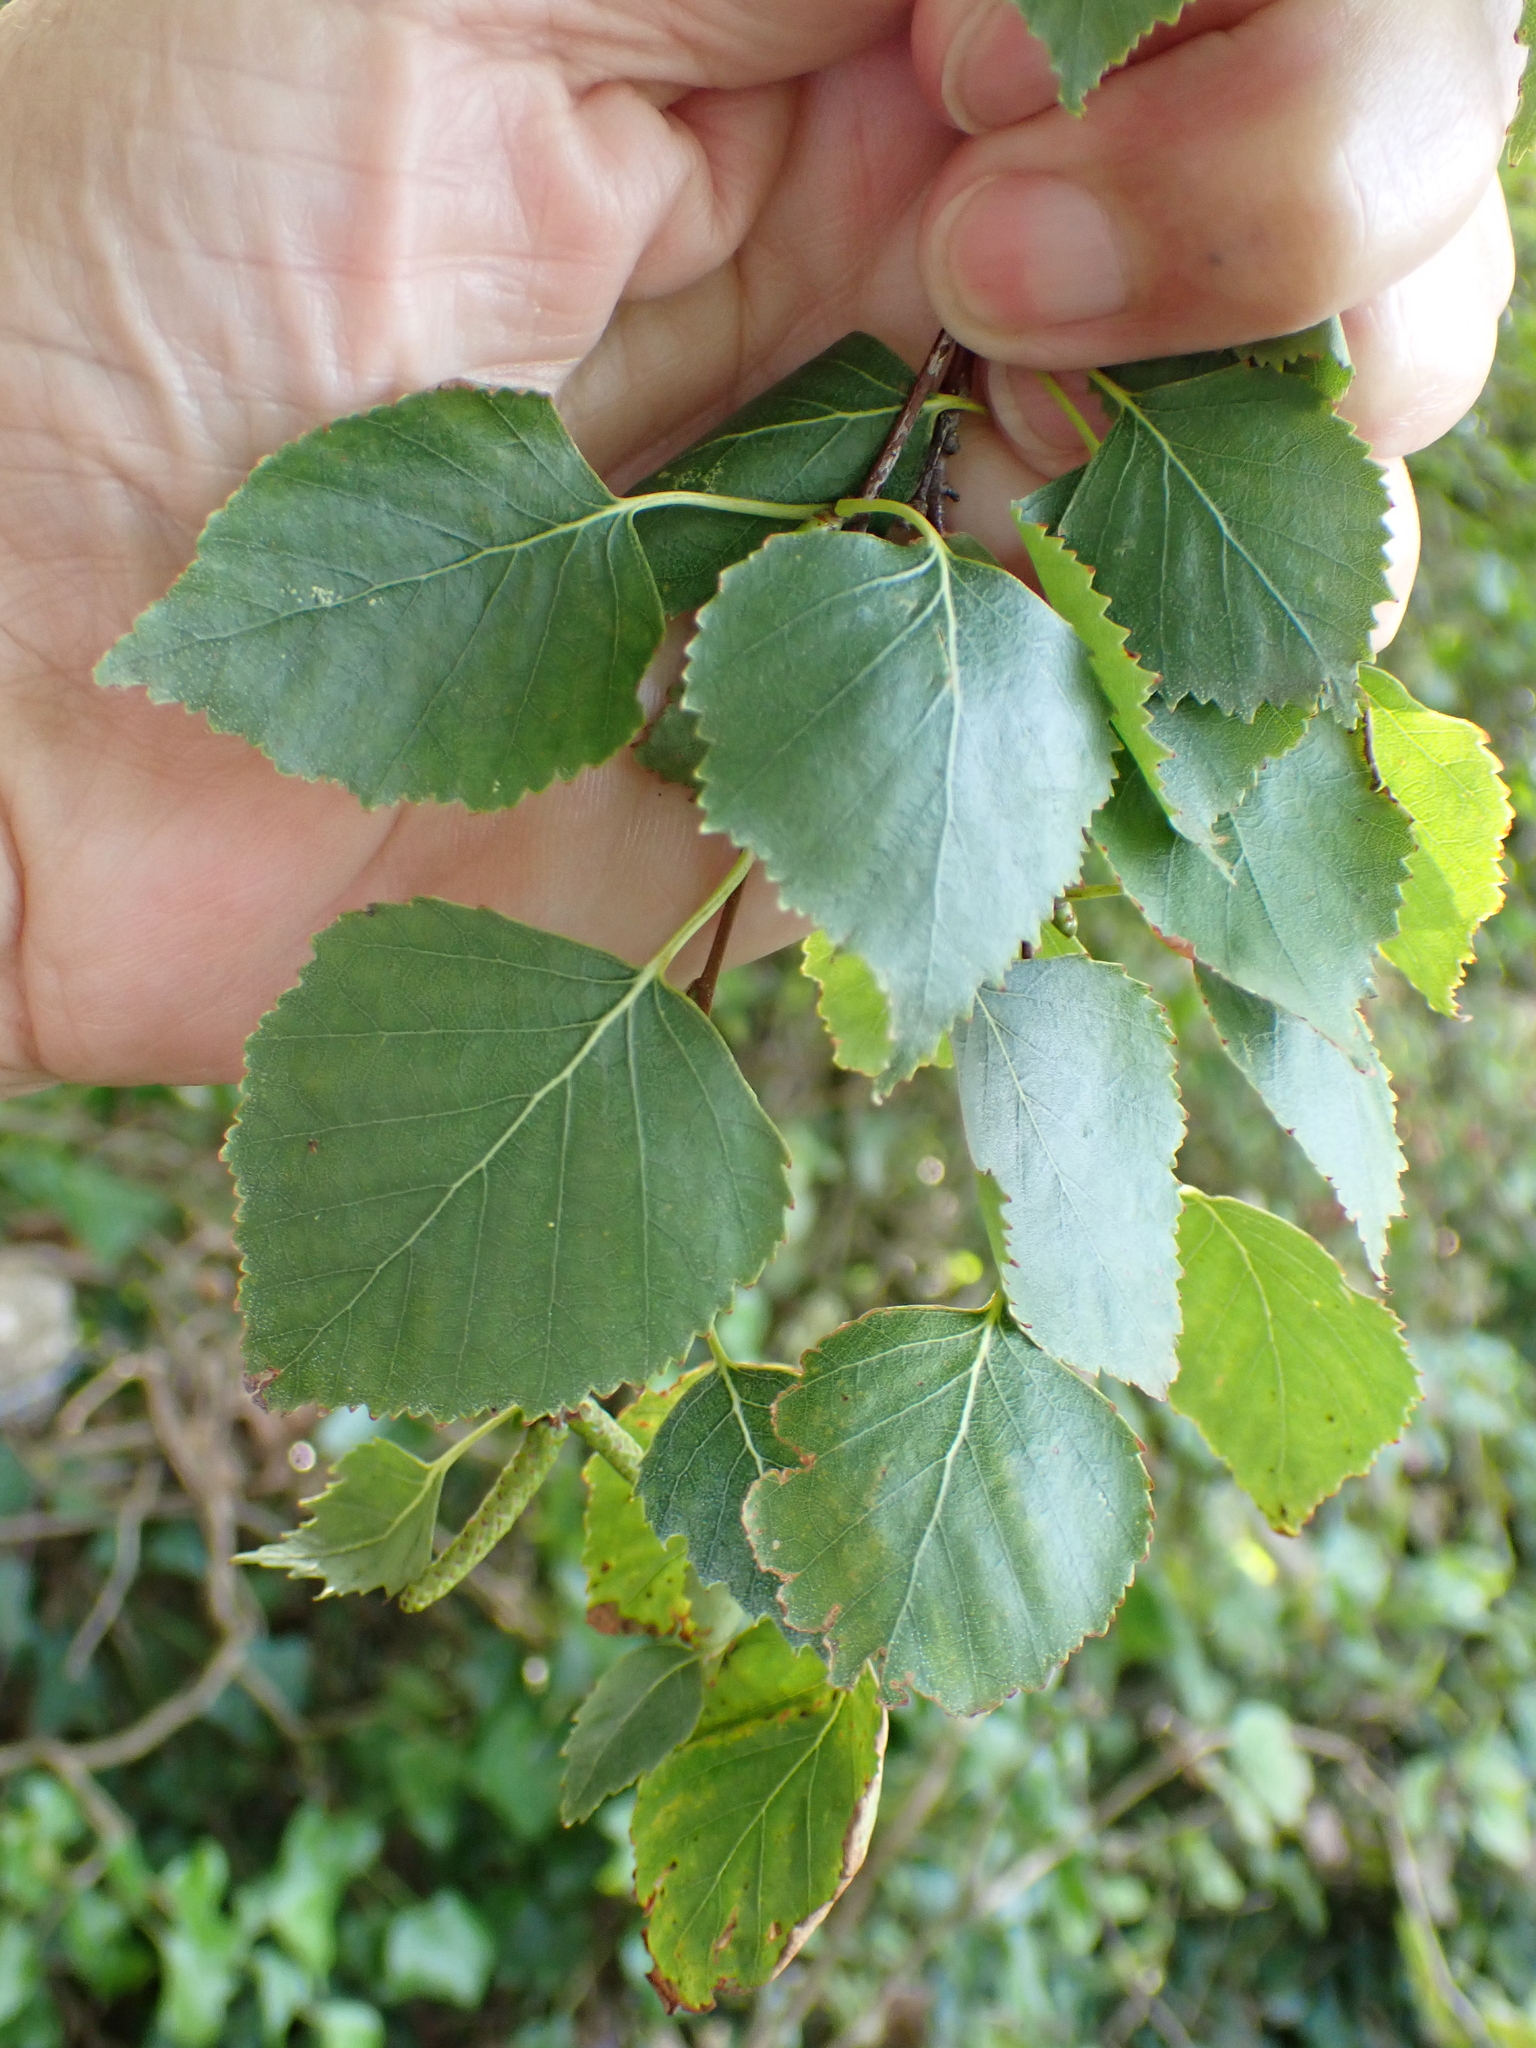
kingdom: Plantae
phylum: Tracheophyta
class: Magnoliopsida
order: Fagales
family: Betulaceae
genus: Betula
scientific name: Betula pendula
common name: Silver birch
